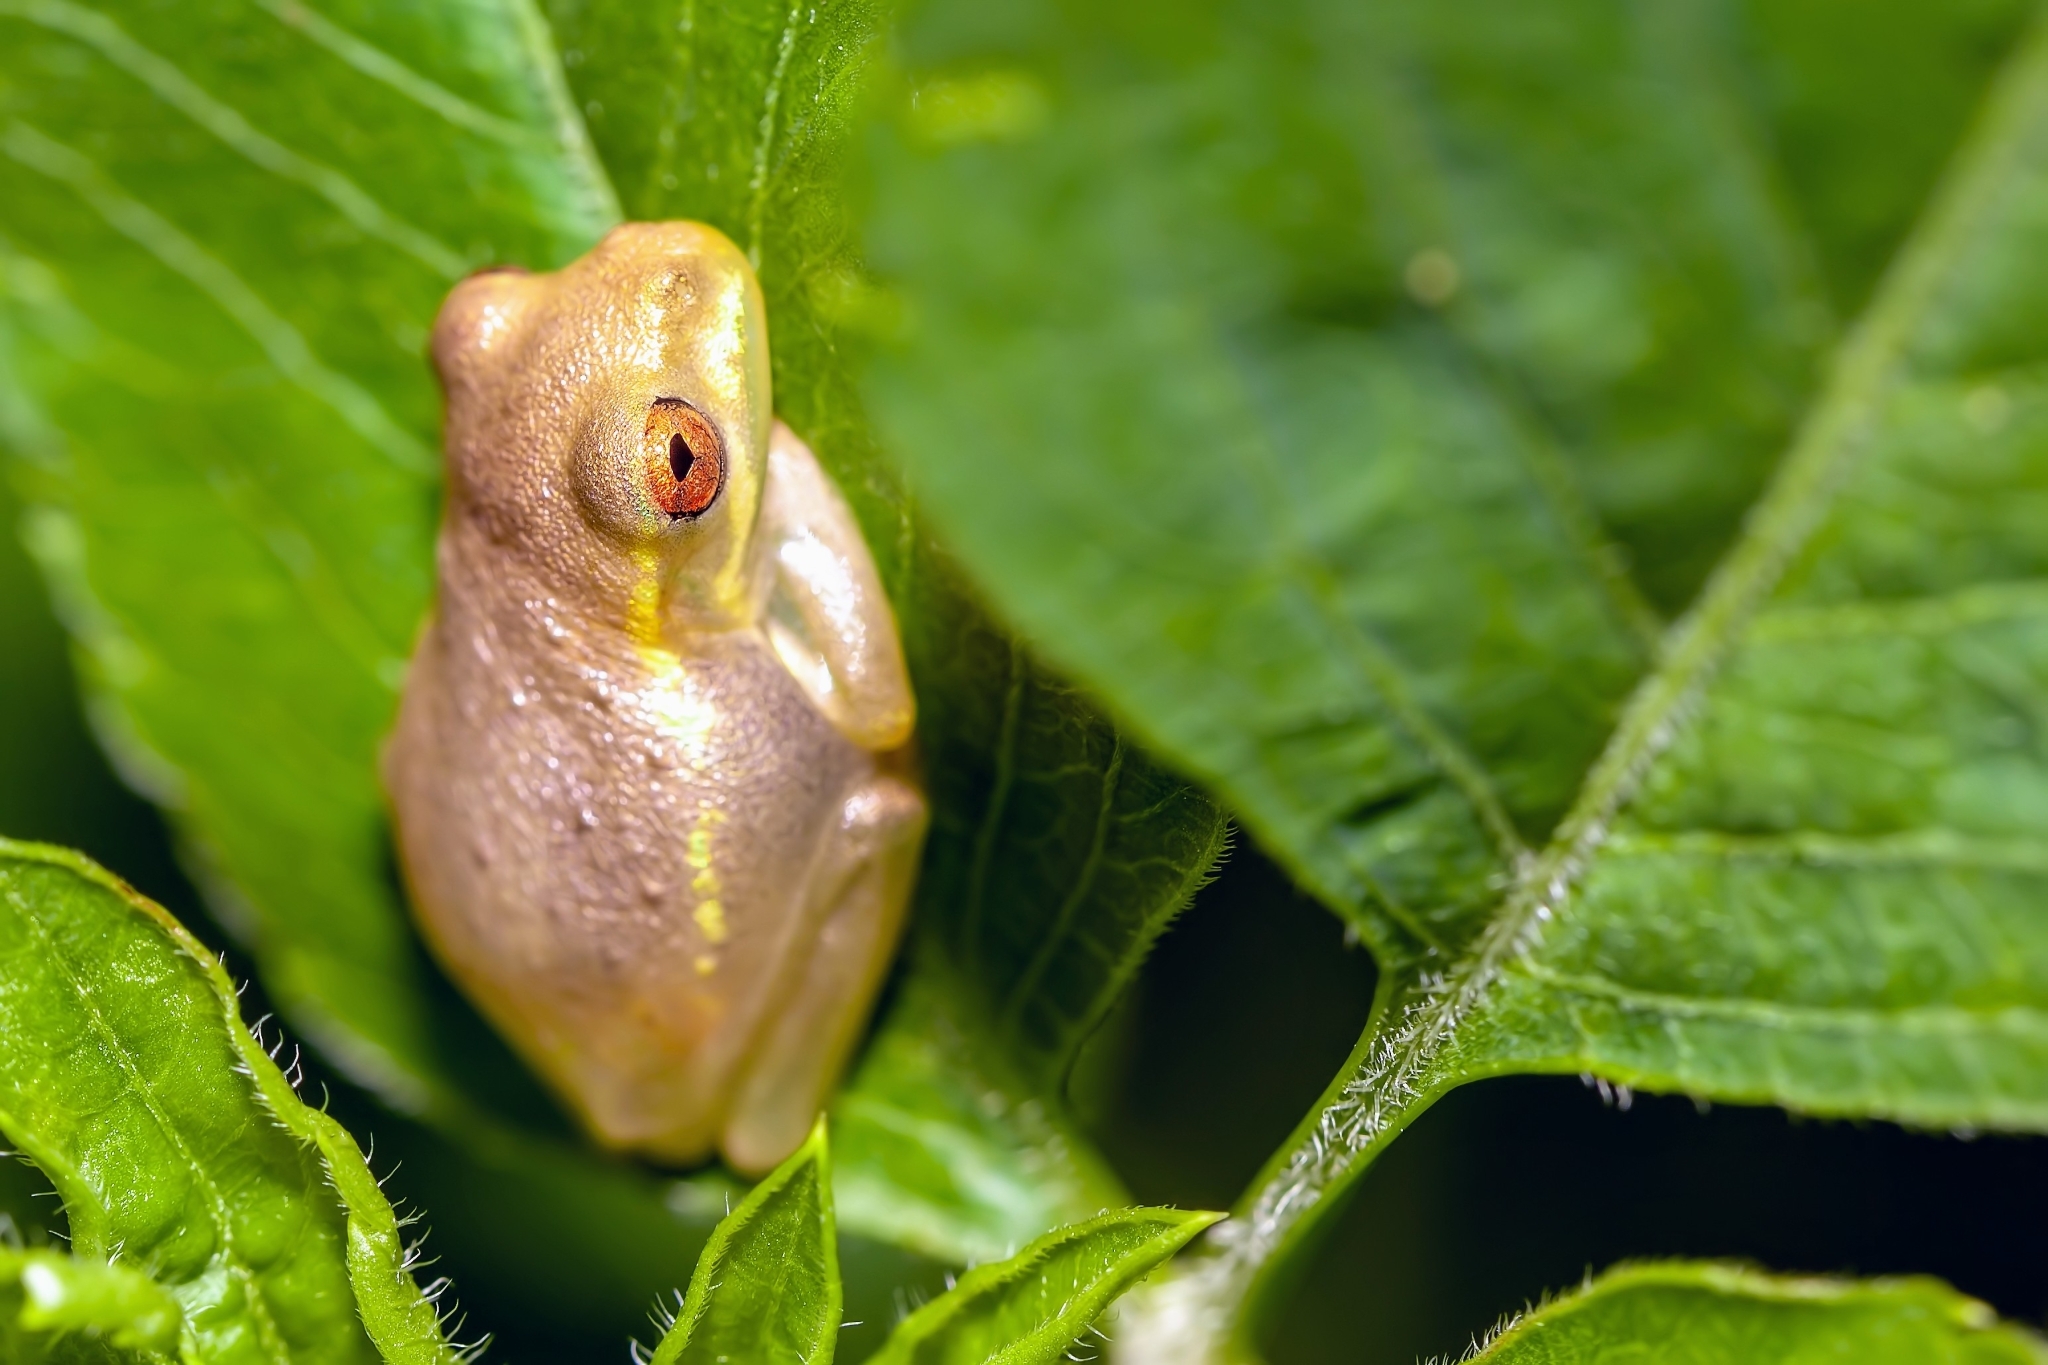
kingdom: Animalia
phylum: Chordata
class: Amphibia
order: Anura
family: Hylidae
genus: Osteopilus
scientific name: Osteopilus septentrionalis
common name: Cuban treefrog
